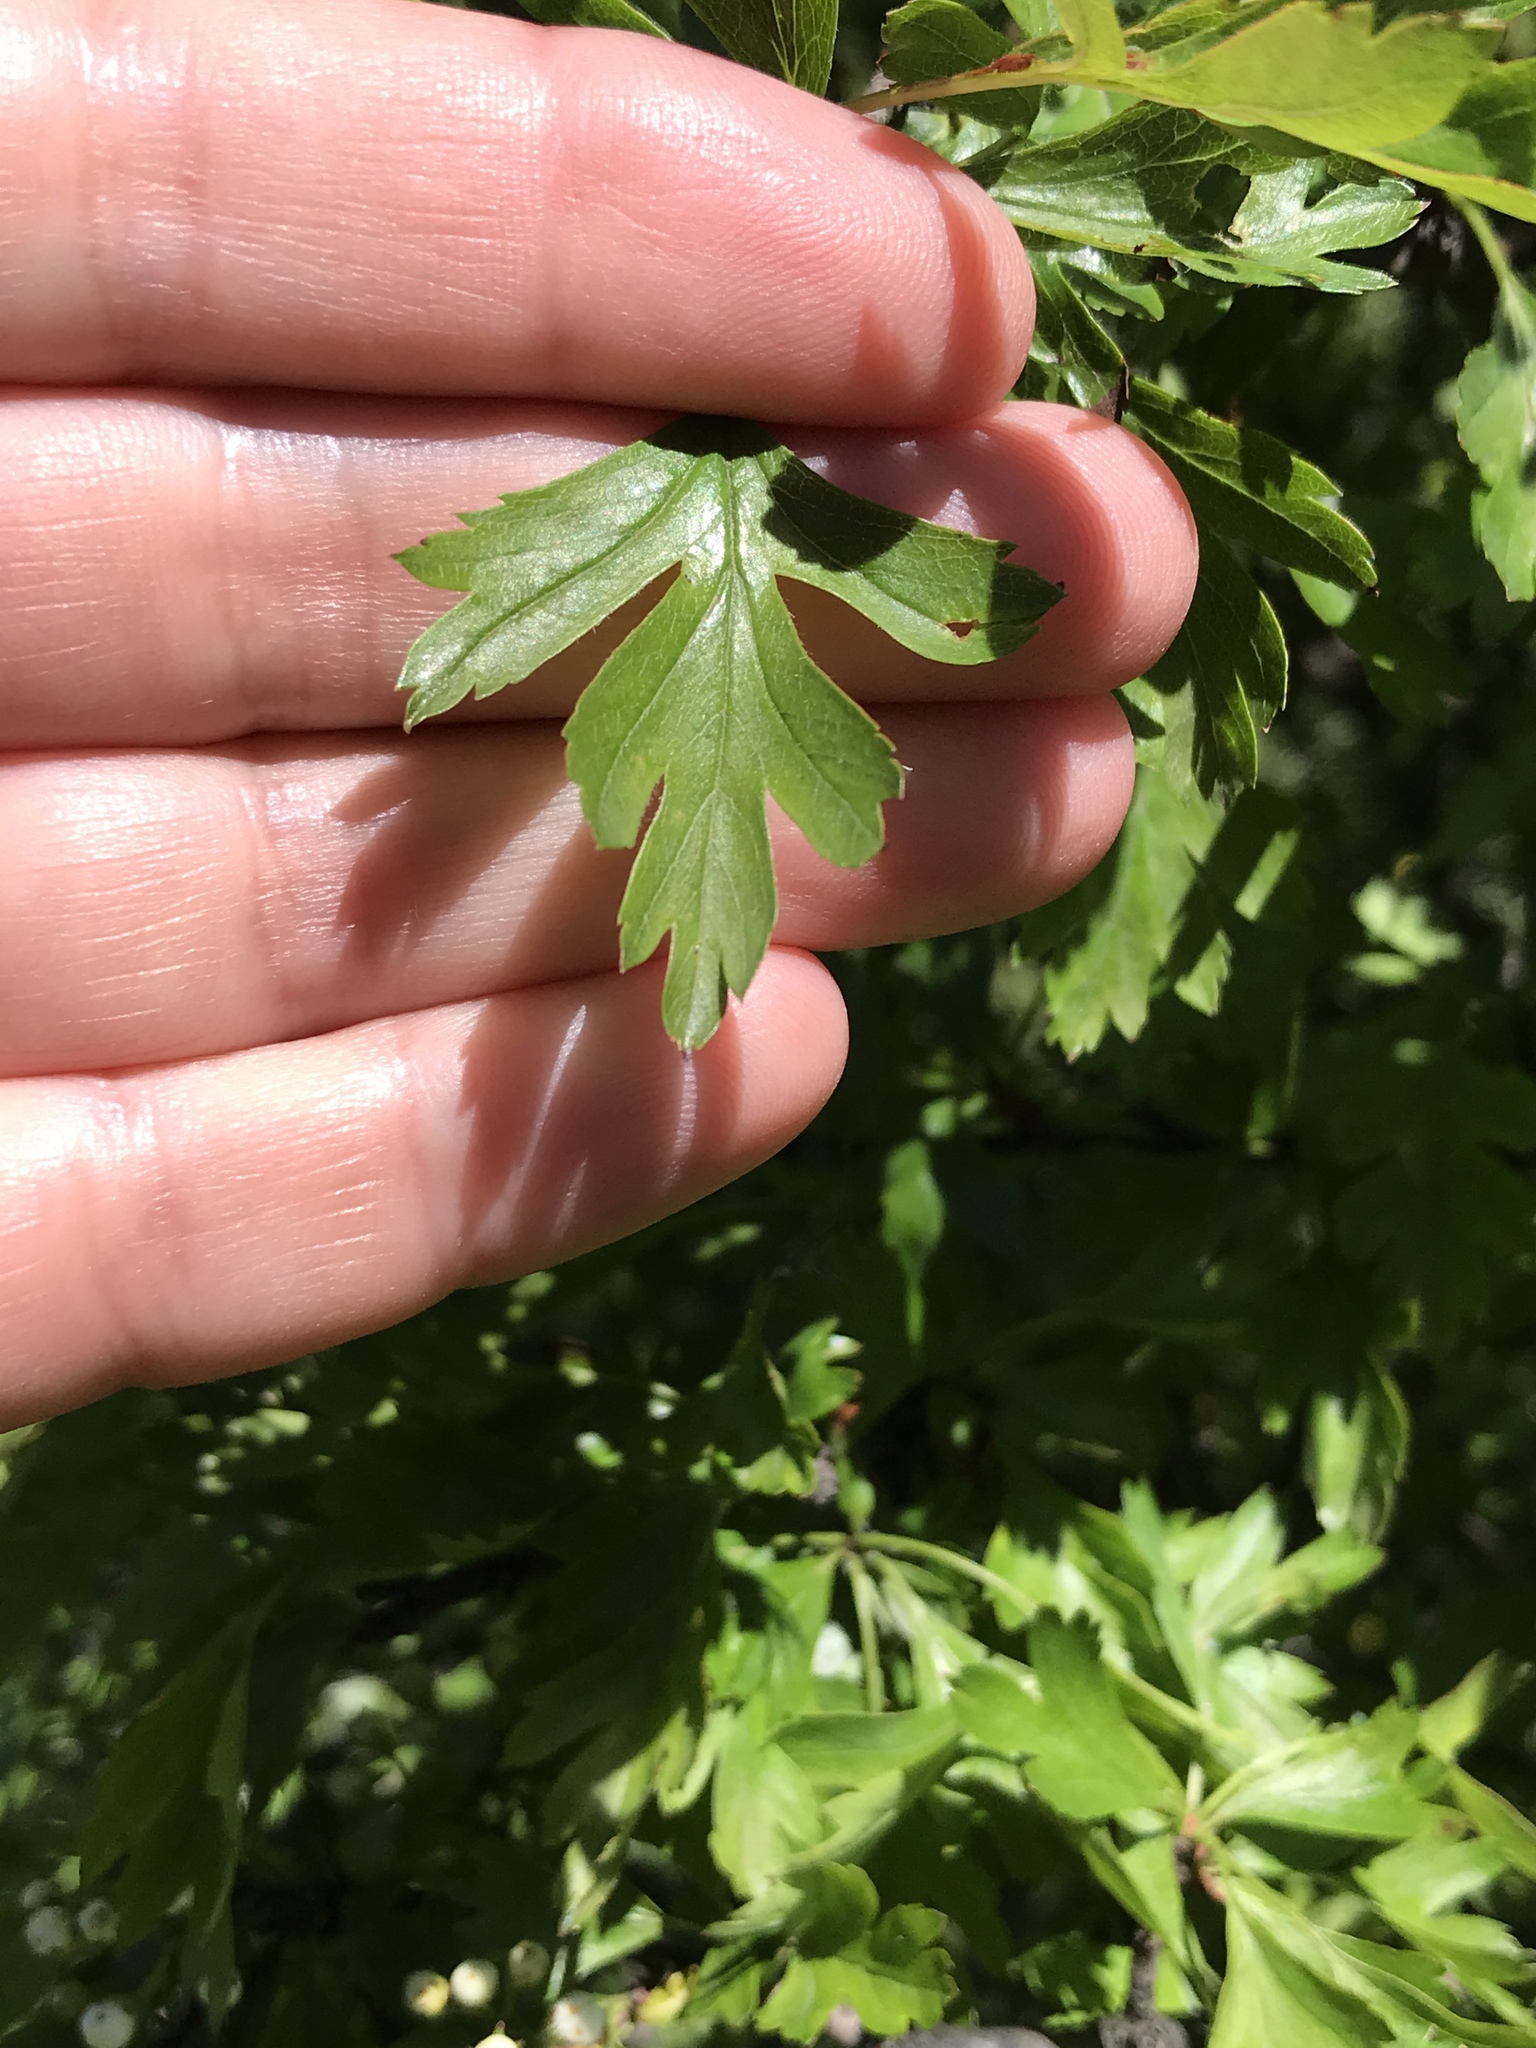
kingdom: Plantae
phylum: Tracheophyta
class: Magnoliopsida
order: Rosales
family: Rosaceae
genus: Crataegus
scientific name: Crataegus monogyna
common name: Hawthorn
